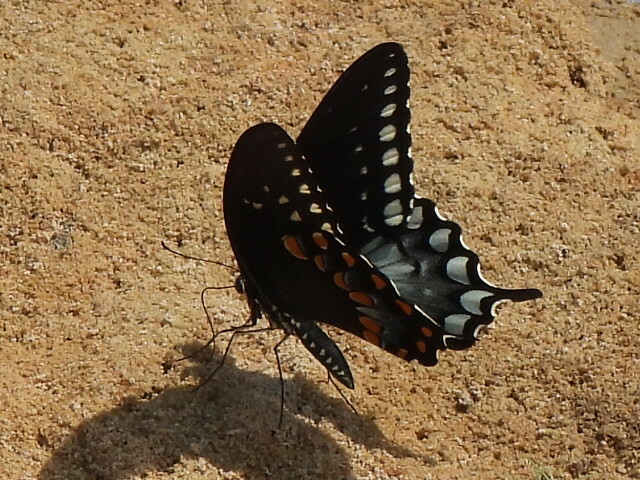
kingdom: Animalia
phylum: Arthropoda
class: Insecta
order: Lepidoptera
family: Papilionidae
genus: Papilio
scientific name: Papilio troilus
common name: Spicebush swallowtail
